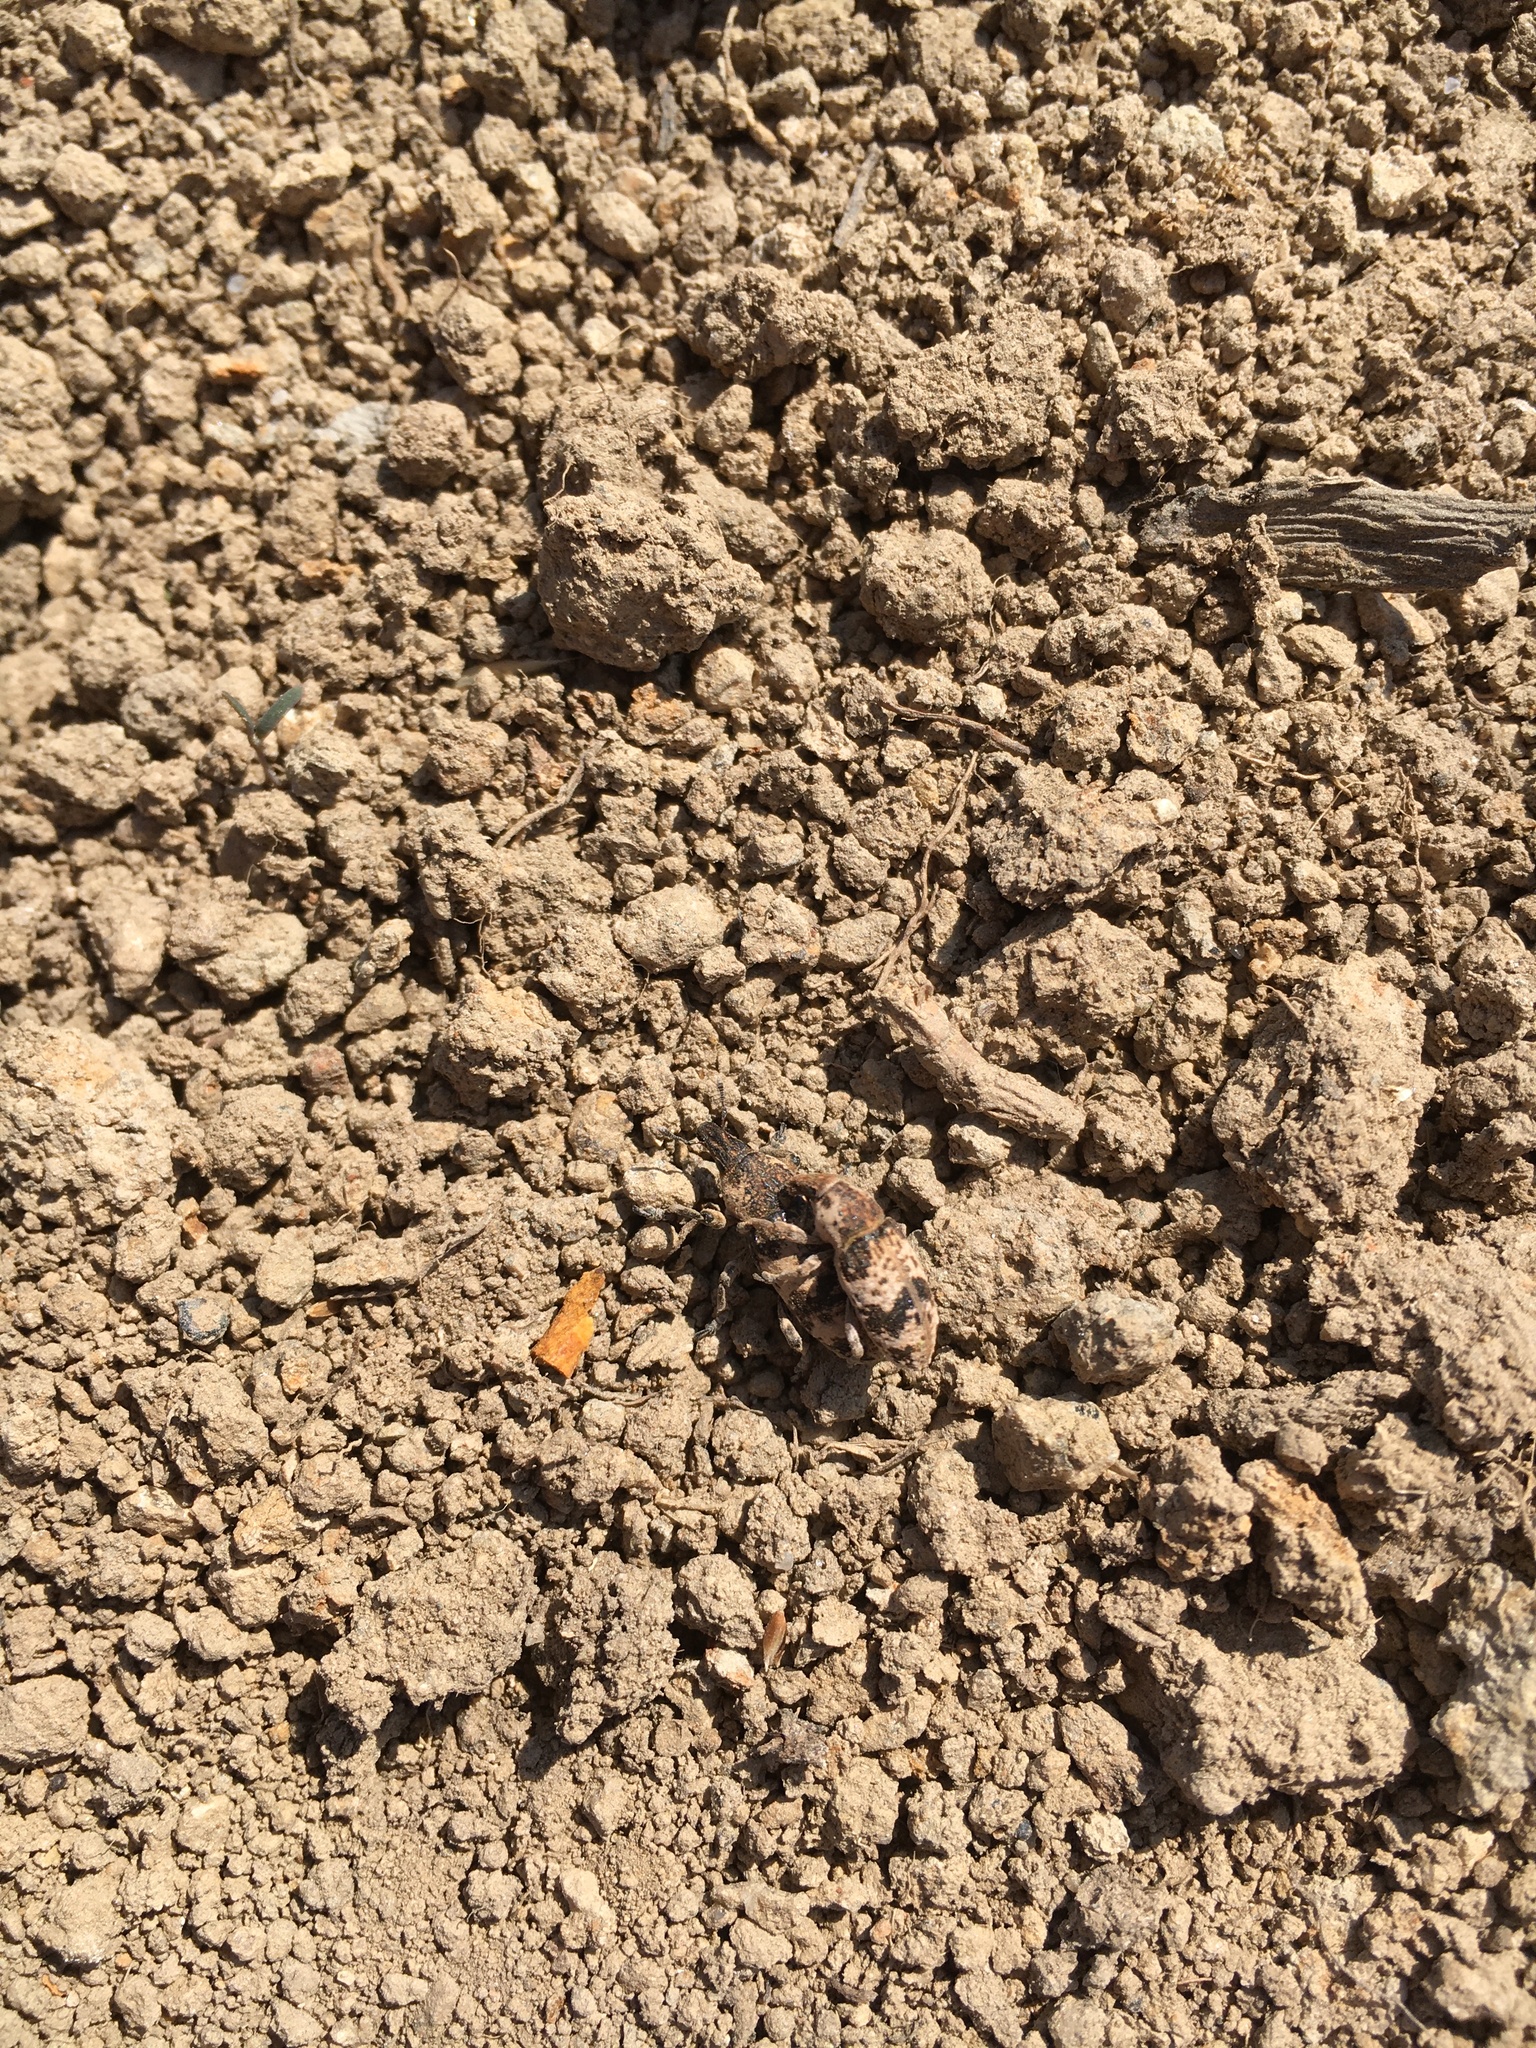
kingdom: Animalia
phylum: Arthropoda
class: Insecta
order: Coleoptera
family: Curculionidae
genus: Bothynoderes
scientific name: Bothynoderes affinis
